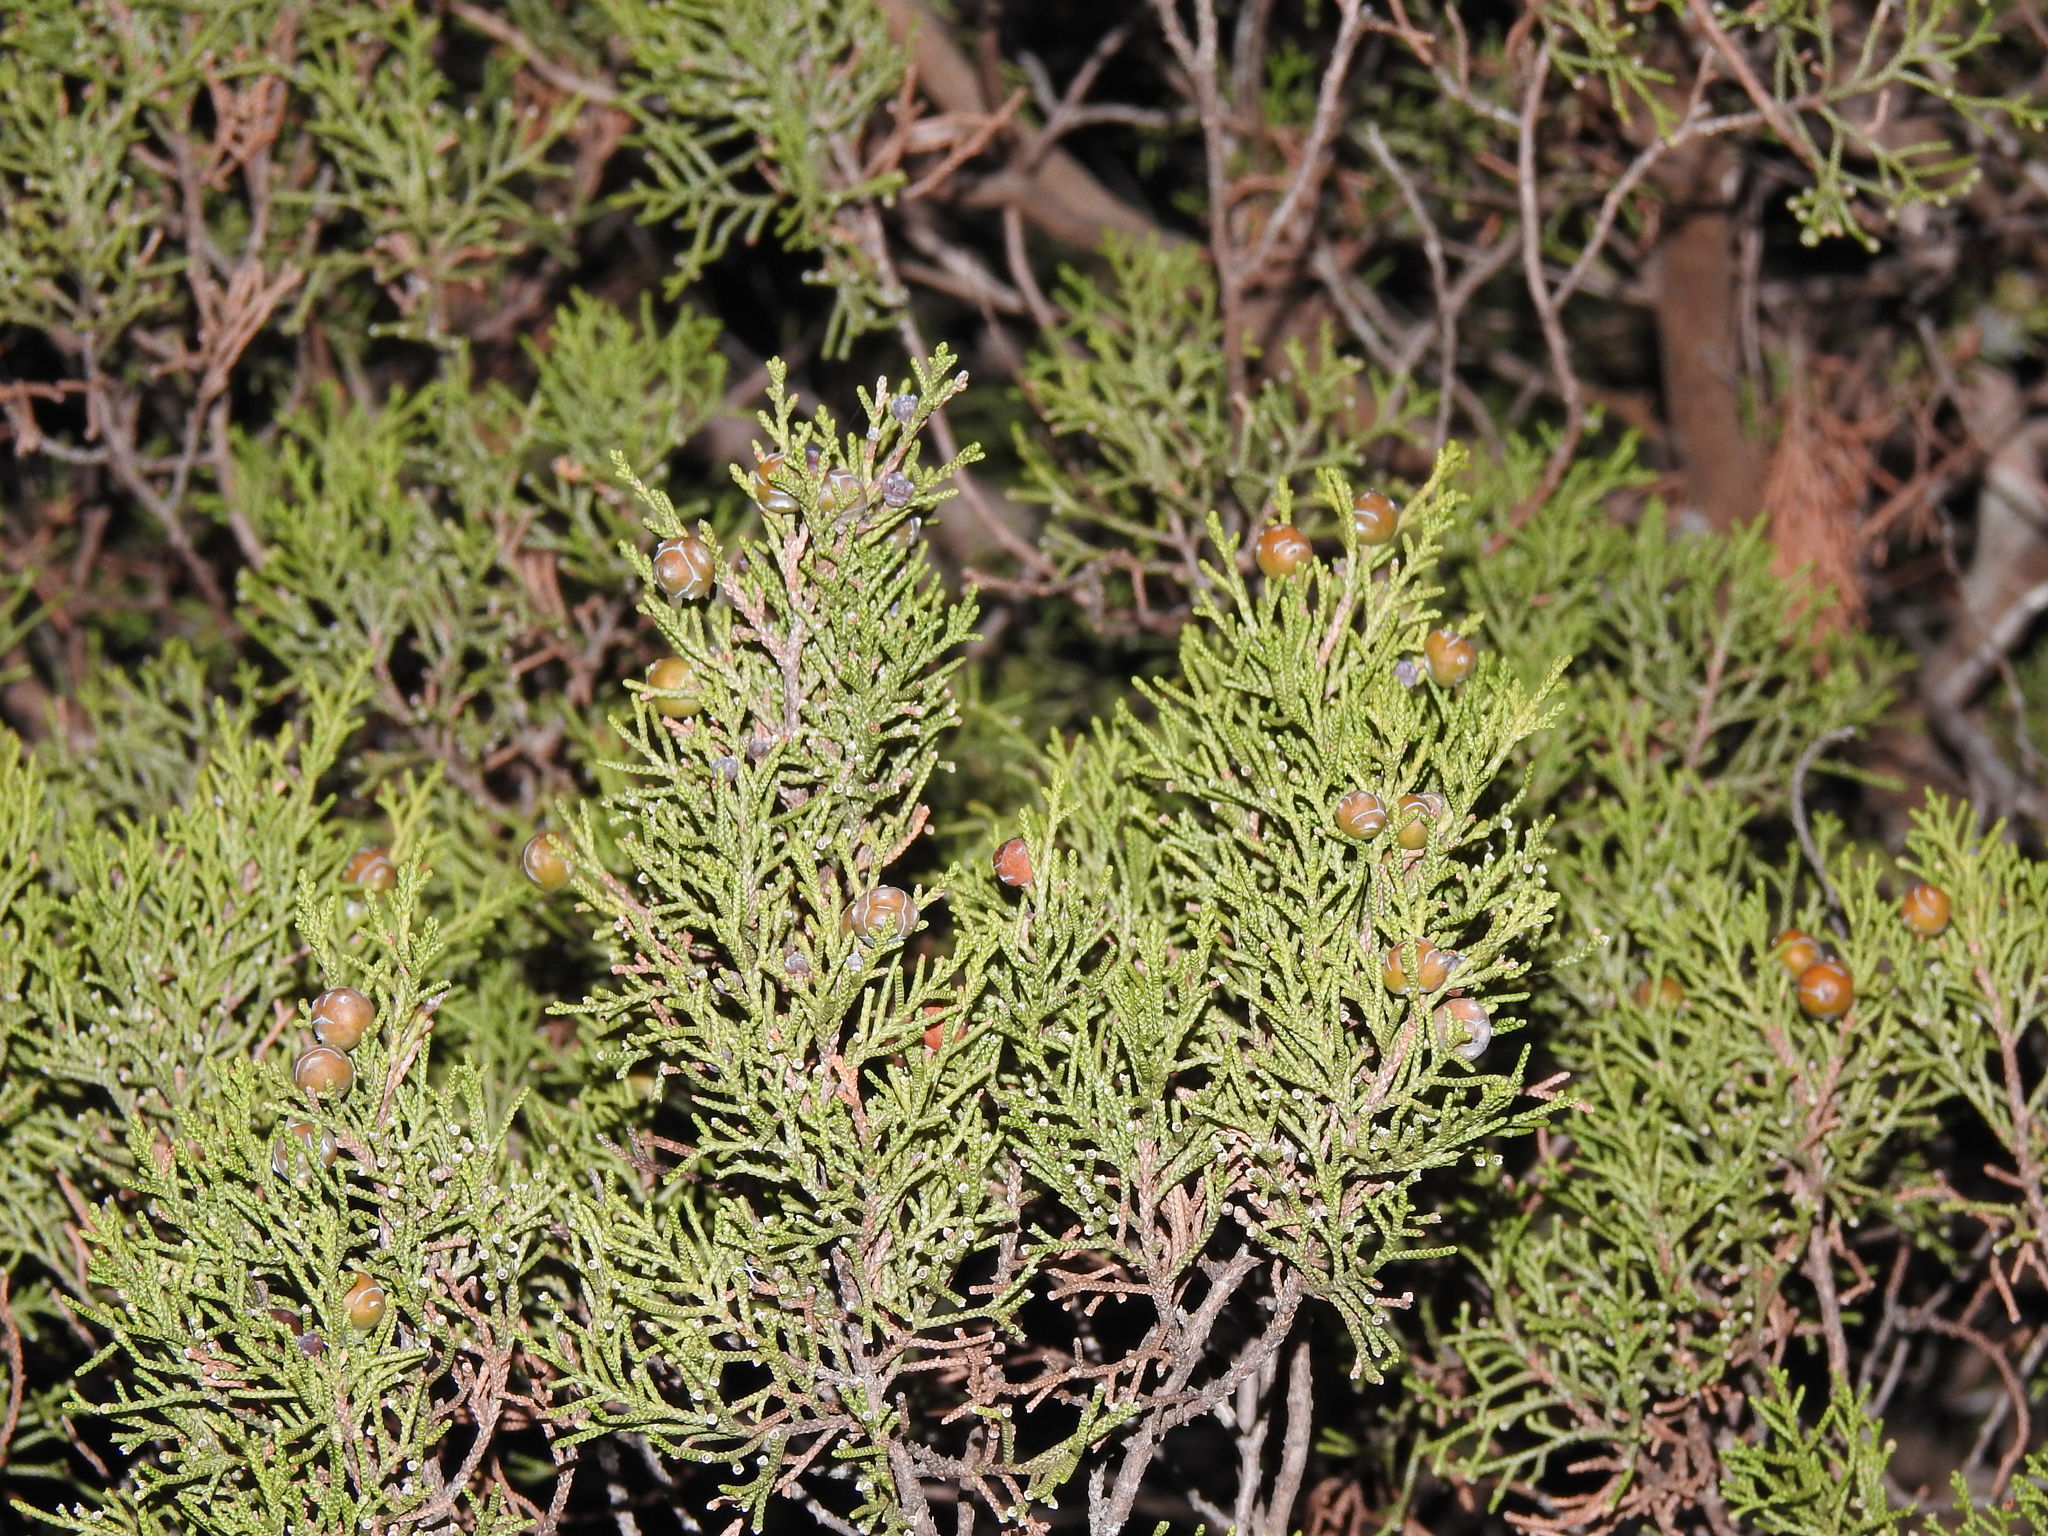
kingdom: Plantae
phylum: Tracheophyta
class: Pinopsida
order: Pinales
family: Cupressaceae
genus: Juniperus
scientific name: Juniperus phoenicea
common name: Phoenician juniper
